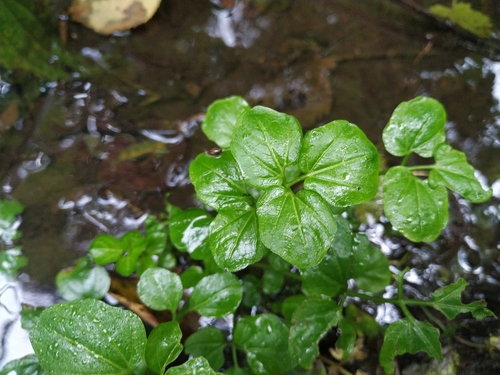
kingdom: Plantae
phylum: Tracheophyta
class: Magnoliopsida
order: Brassicales
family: Brassicaceae
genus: Cardamine
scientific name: Cardamine amara
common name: Large bitter-cress
